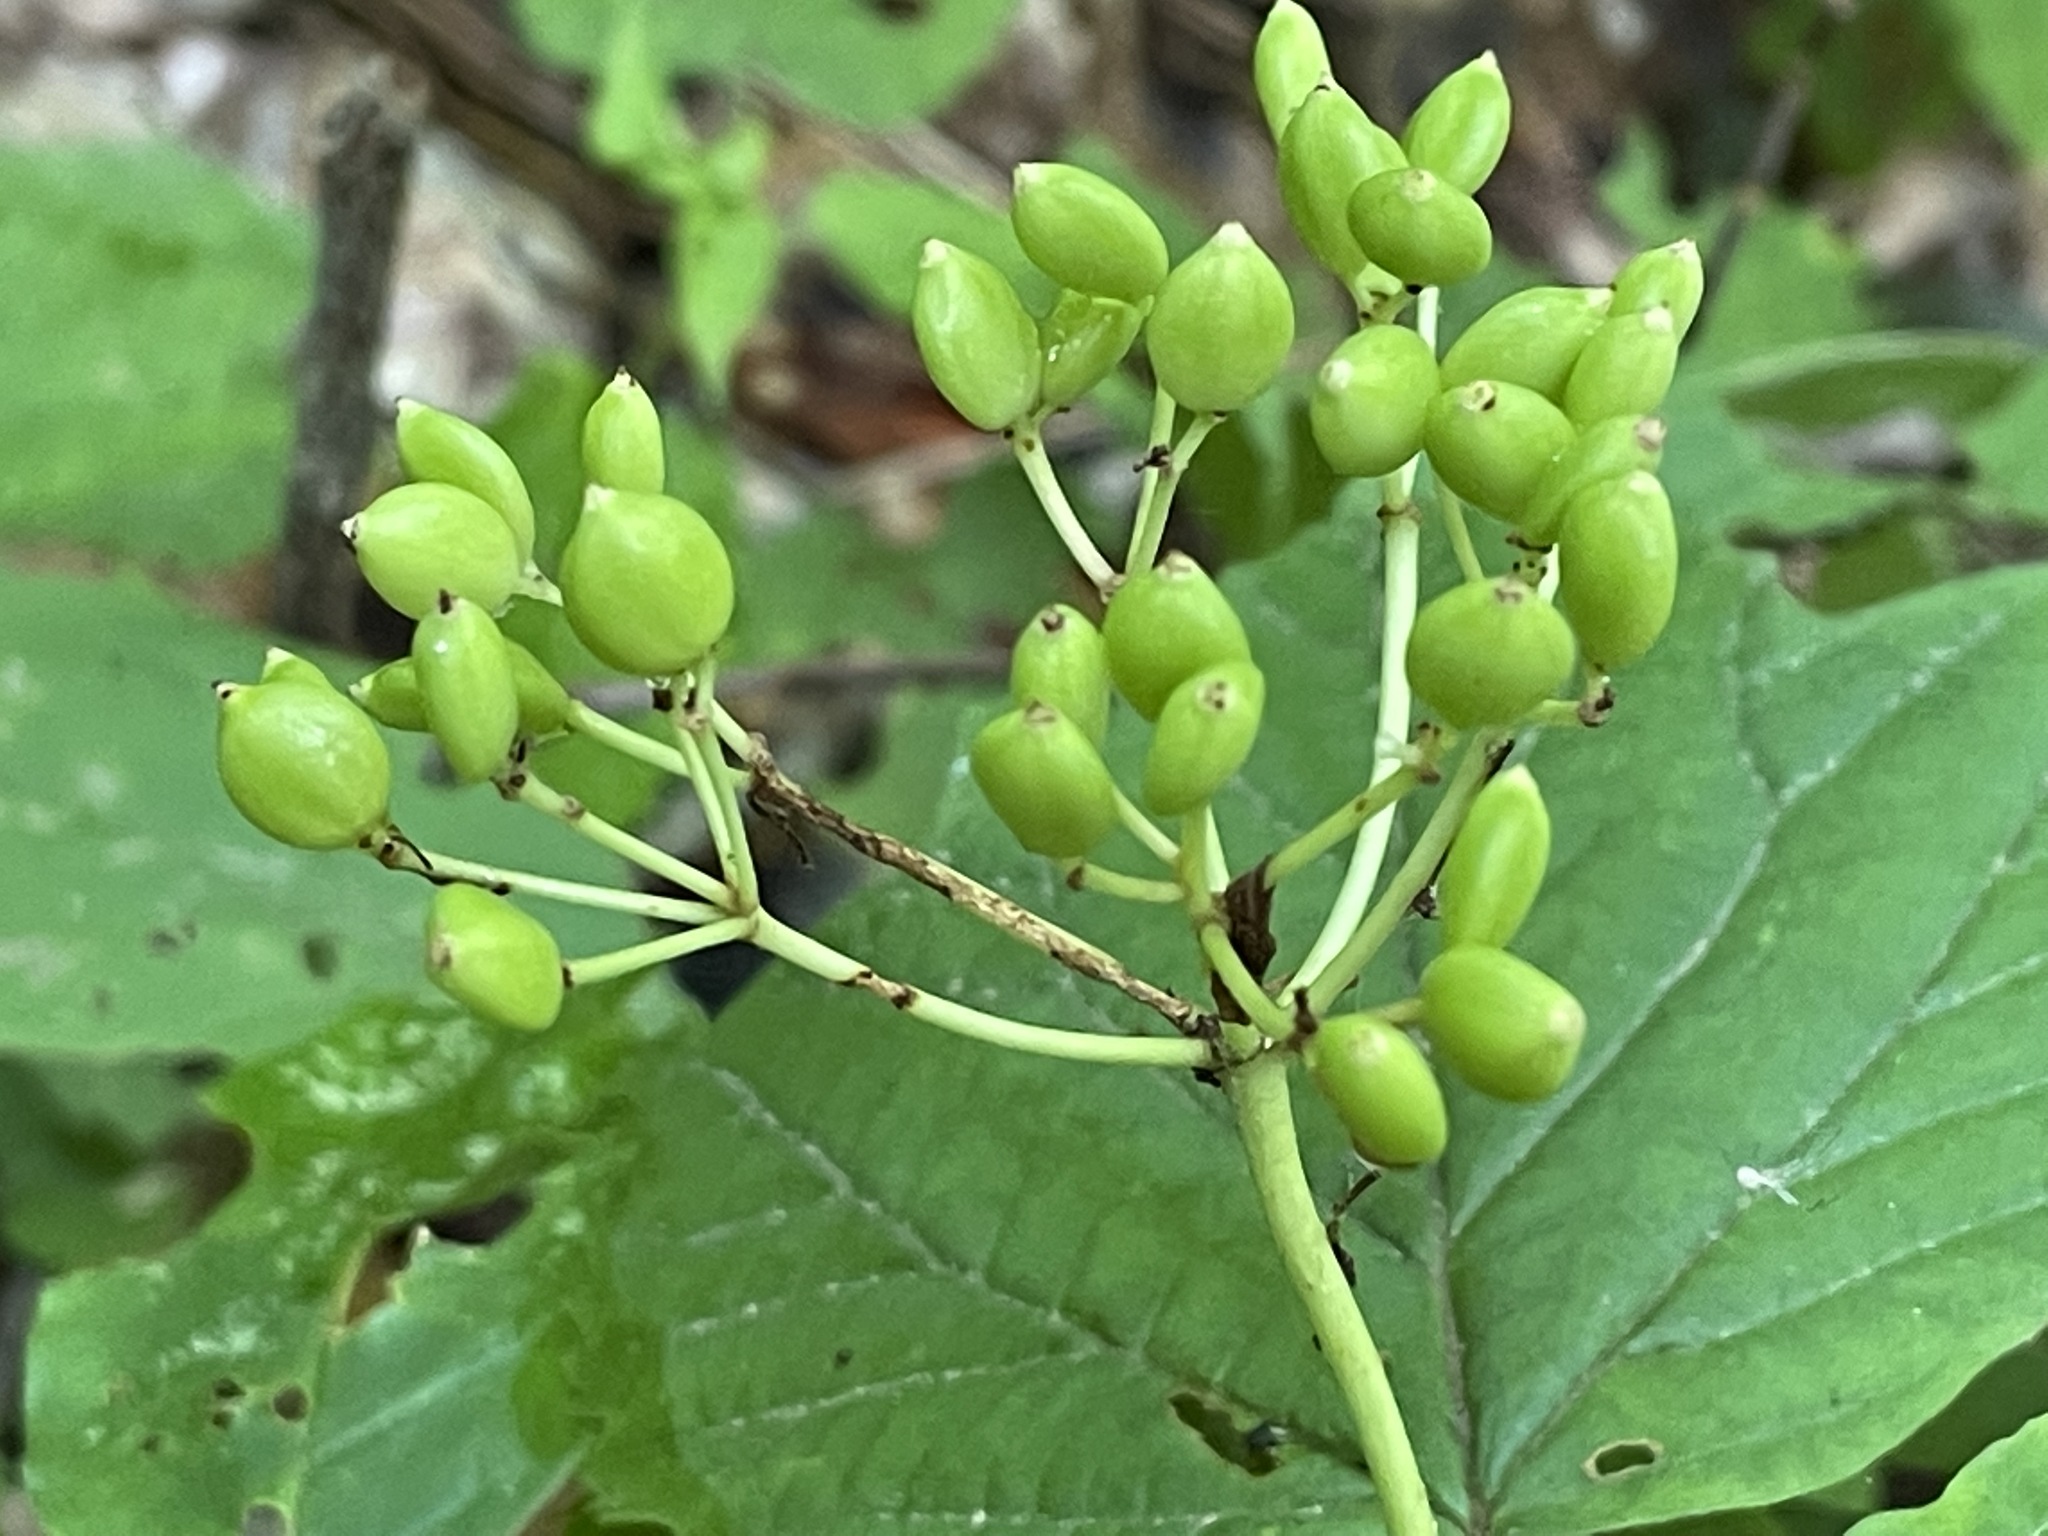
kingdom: Plantae
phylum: Tracheophyta
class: Magnoliopsida
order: Dipsacales
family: Viburnaceae
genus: Viburnum
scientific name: Viburnum acerifolium
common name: Dockmackie
